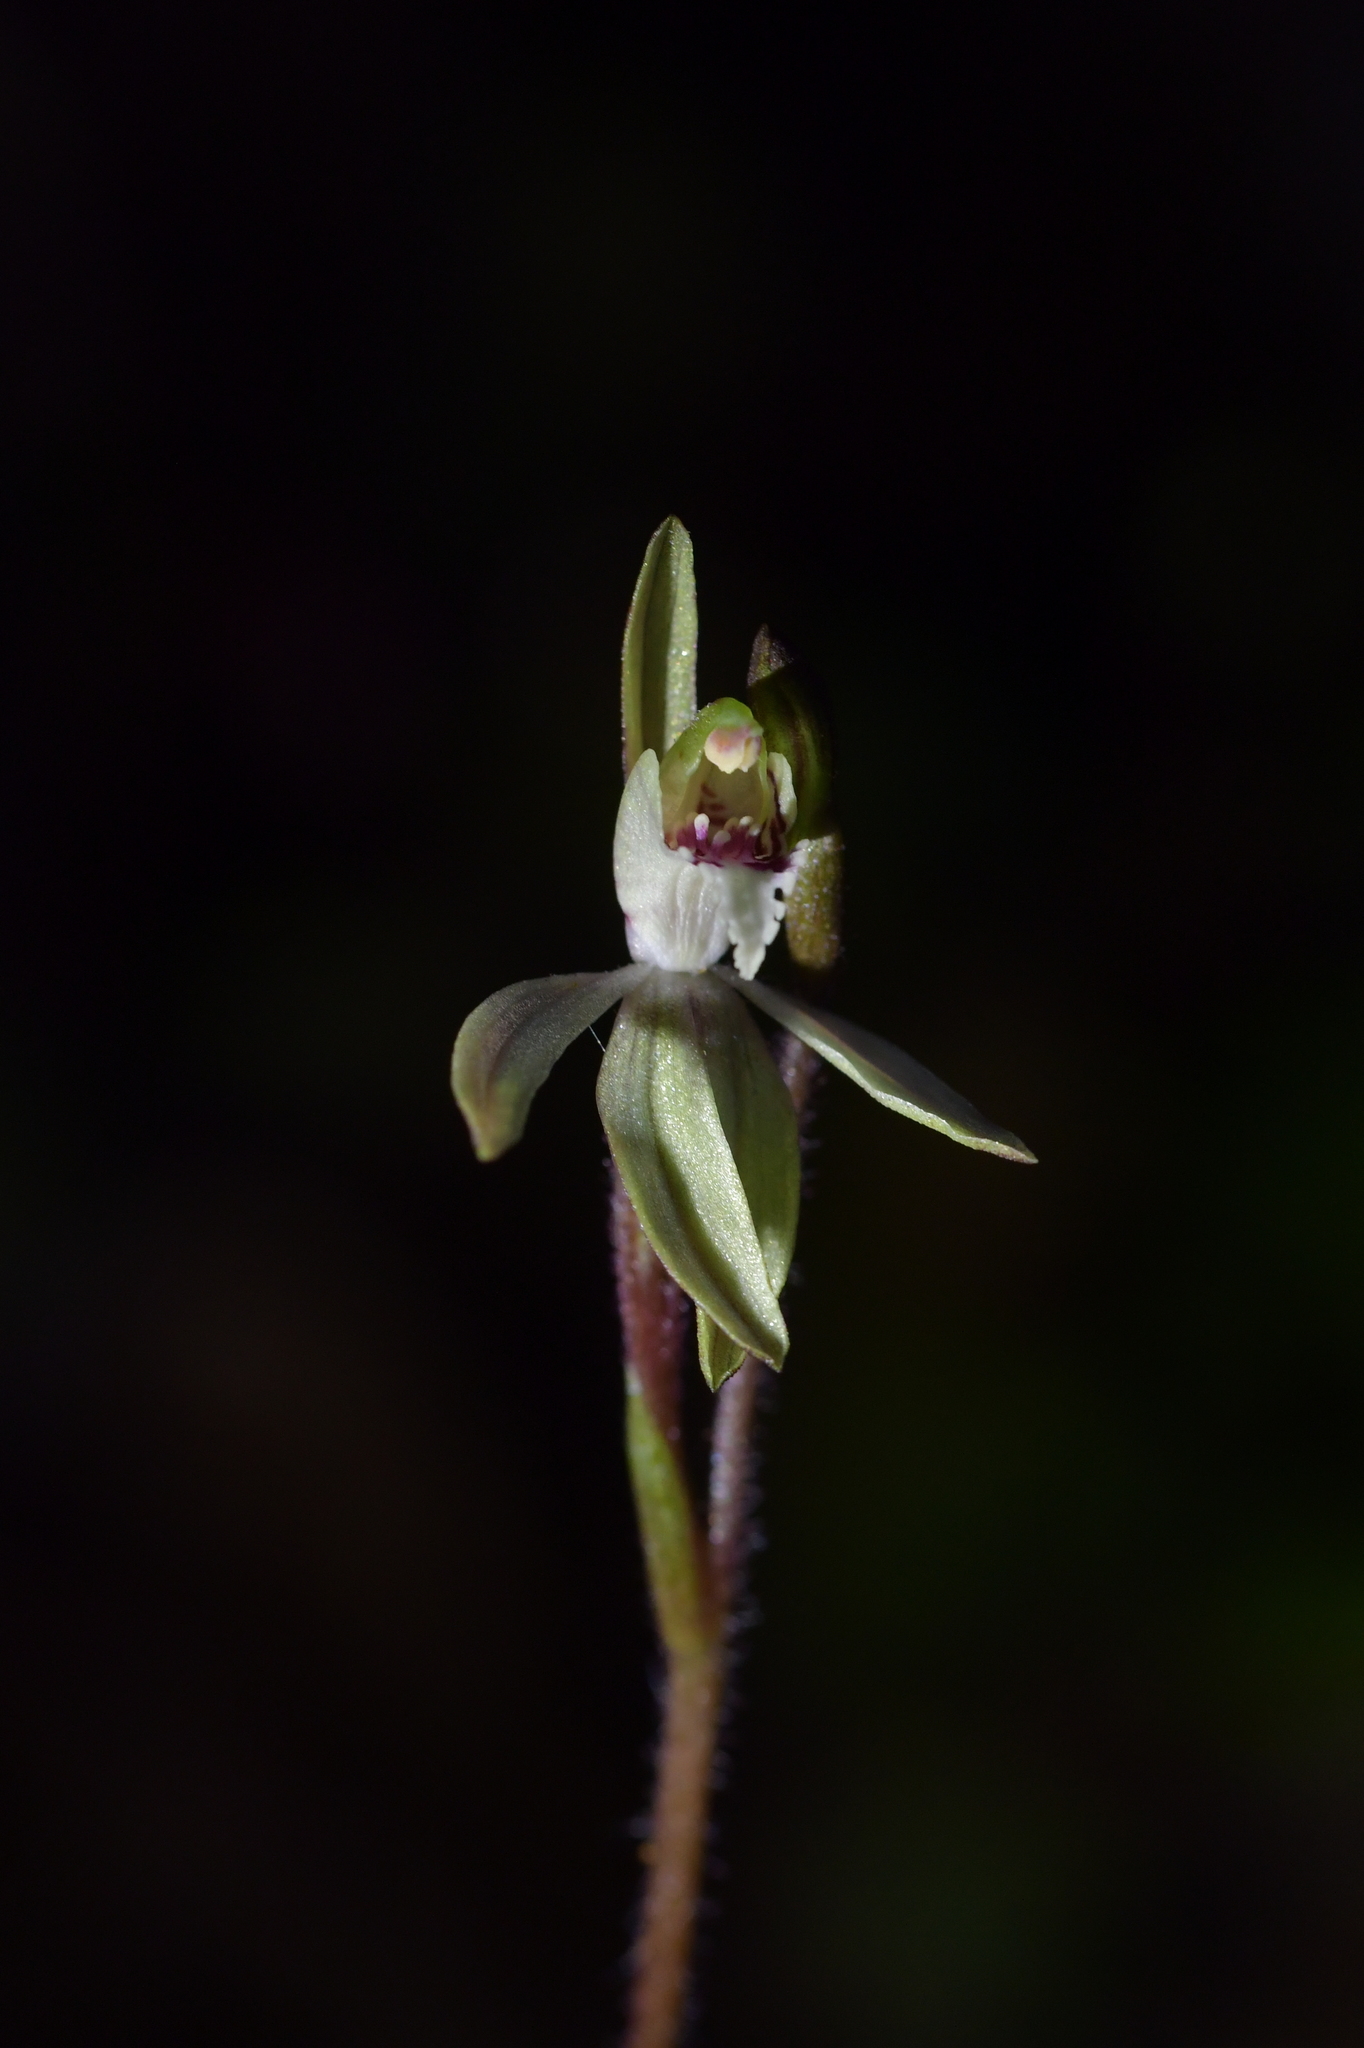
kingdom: Plantae
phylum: Tracheophyta
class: Liliopsida
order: Asparagales
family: Orchidaceae
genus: Caladenia
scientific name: Caladenia chlorostyla
